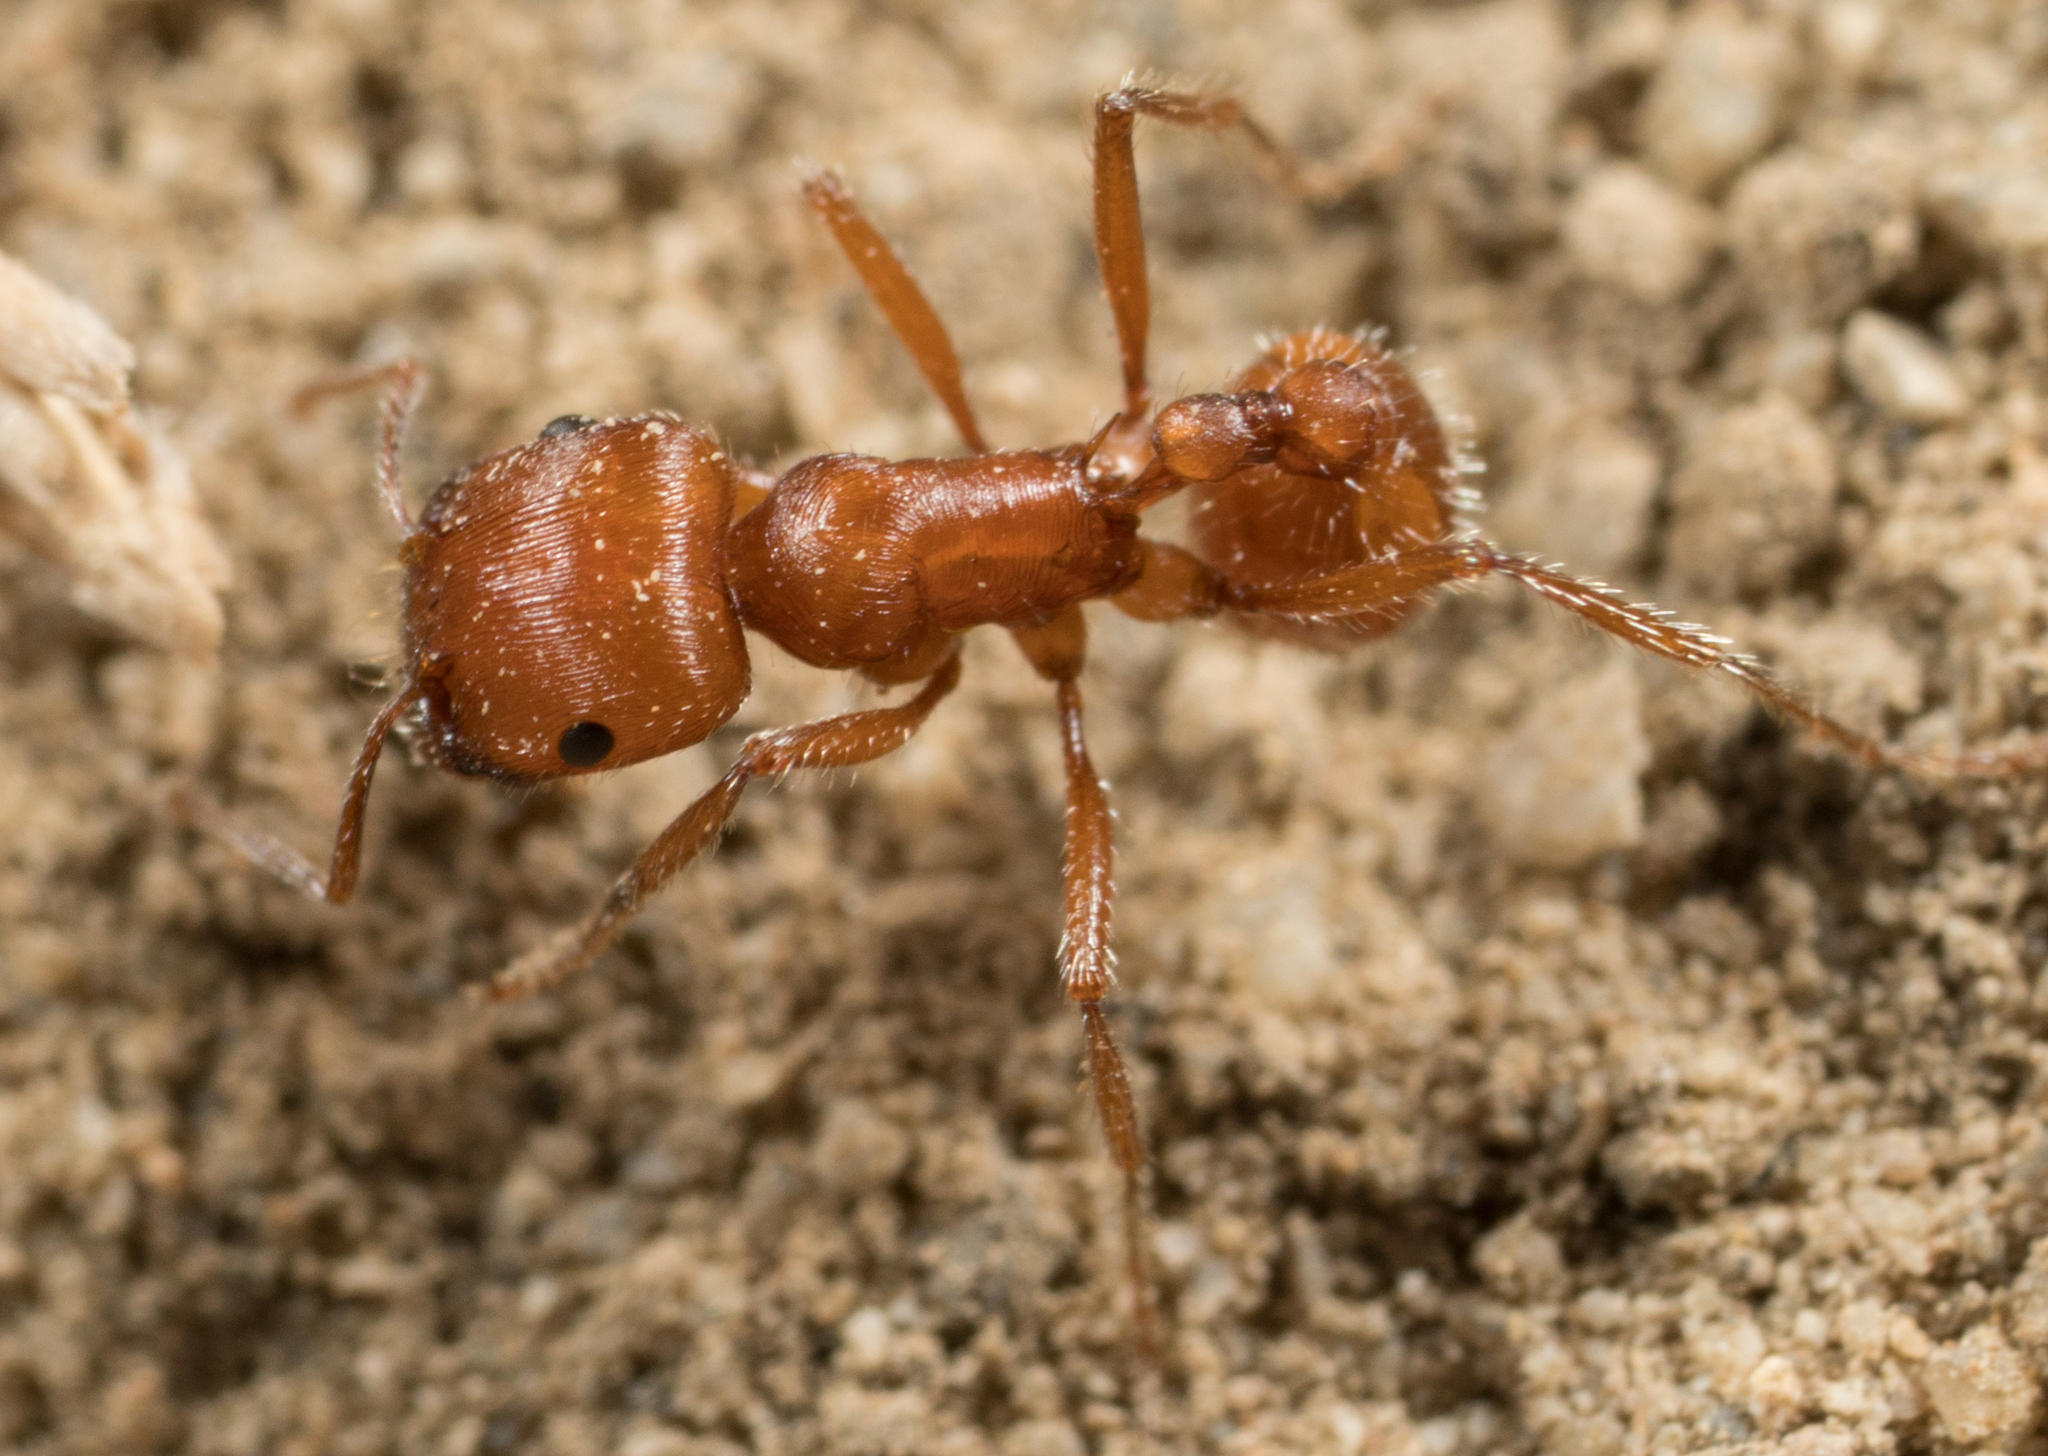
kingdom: Animalia
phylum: Arthropoda
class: Insecta
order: Hymenoptera
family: Formicidae
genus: Pogonomyrmex
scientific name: Pogonomyrmex subnitidus
